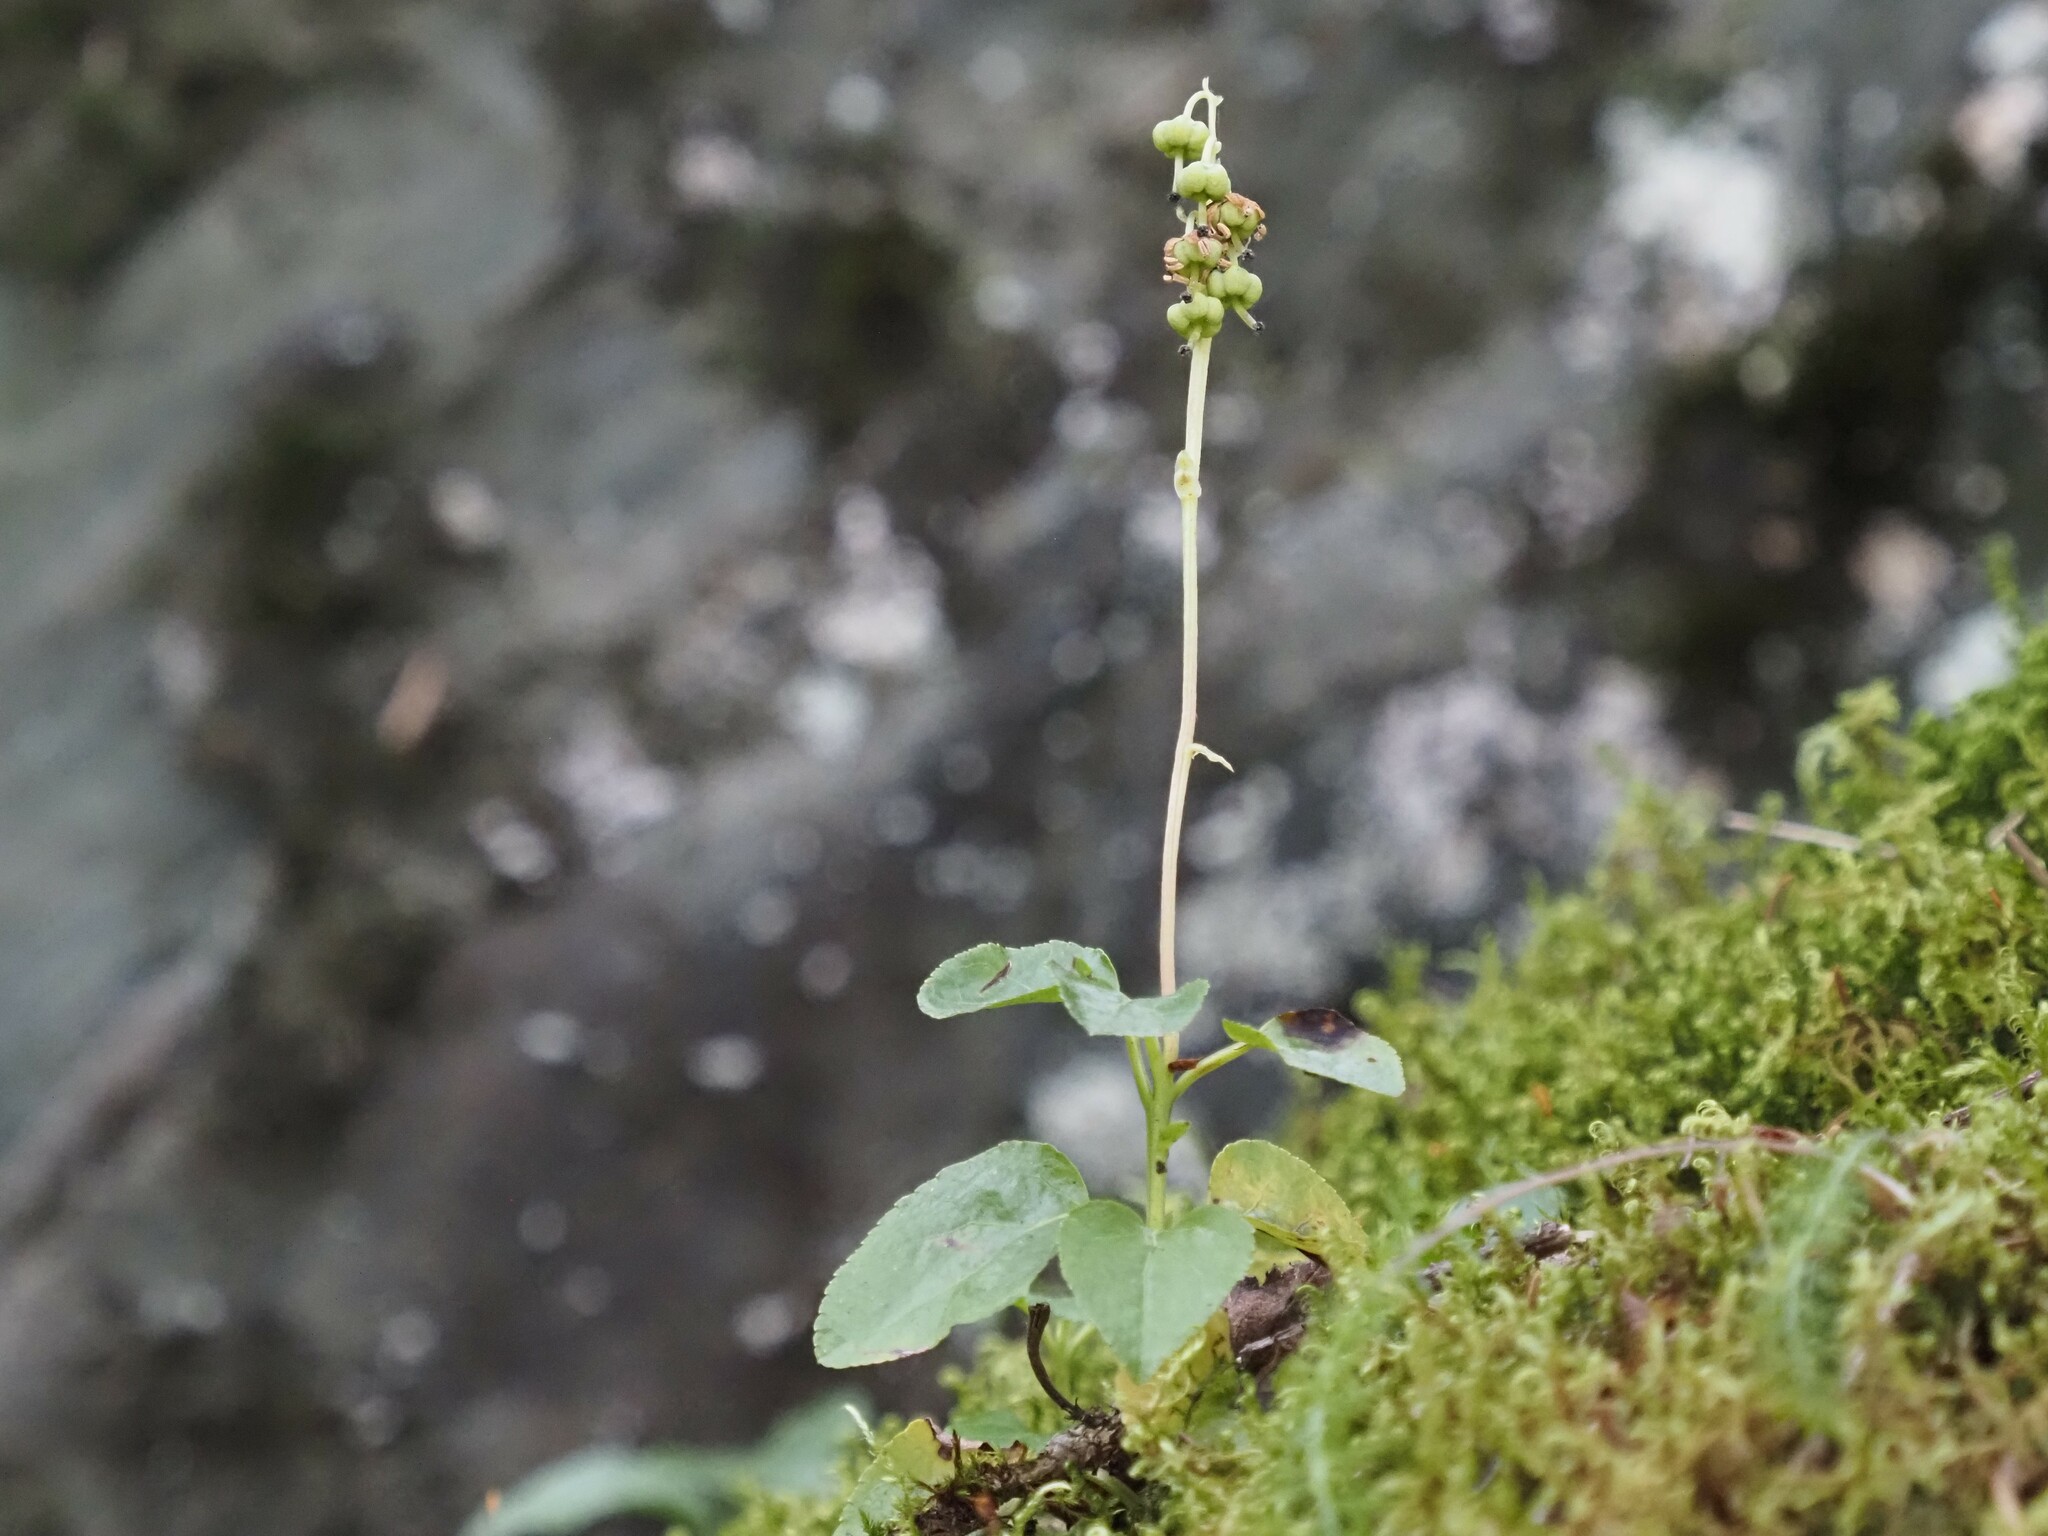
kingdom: Plantae
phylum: Tracheophyta
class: Magnoliopsida
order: Ericales
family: Ericaceae
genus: Orthilia
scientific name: Orthilia secunda
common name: One-sided orthilia
